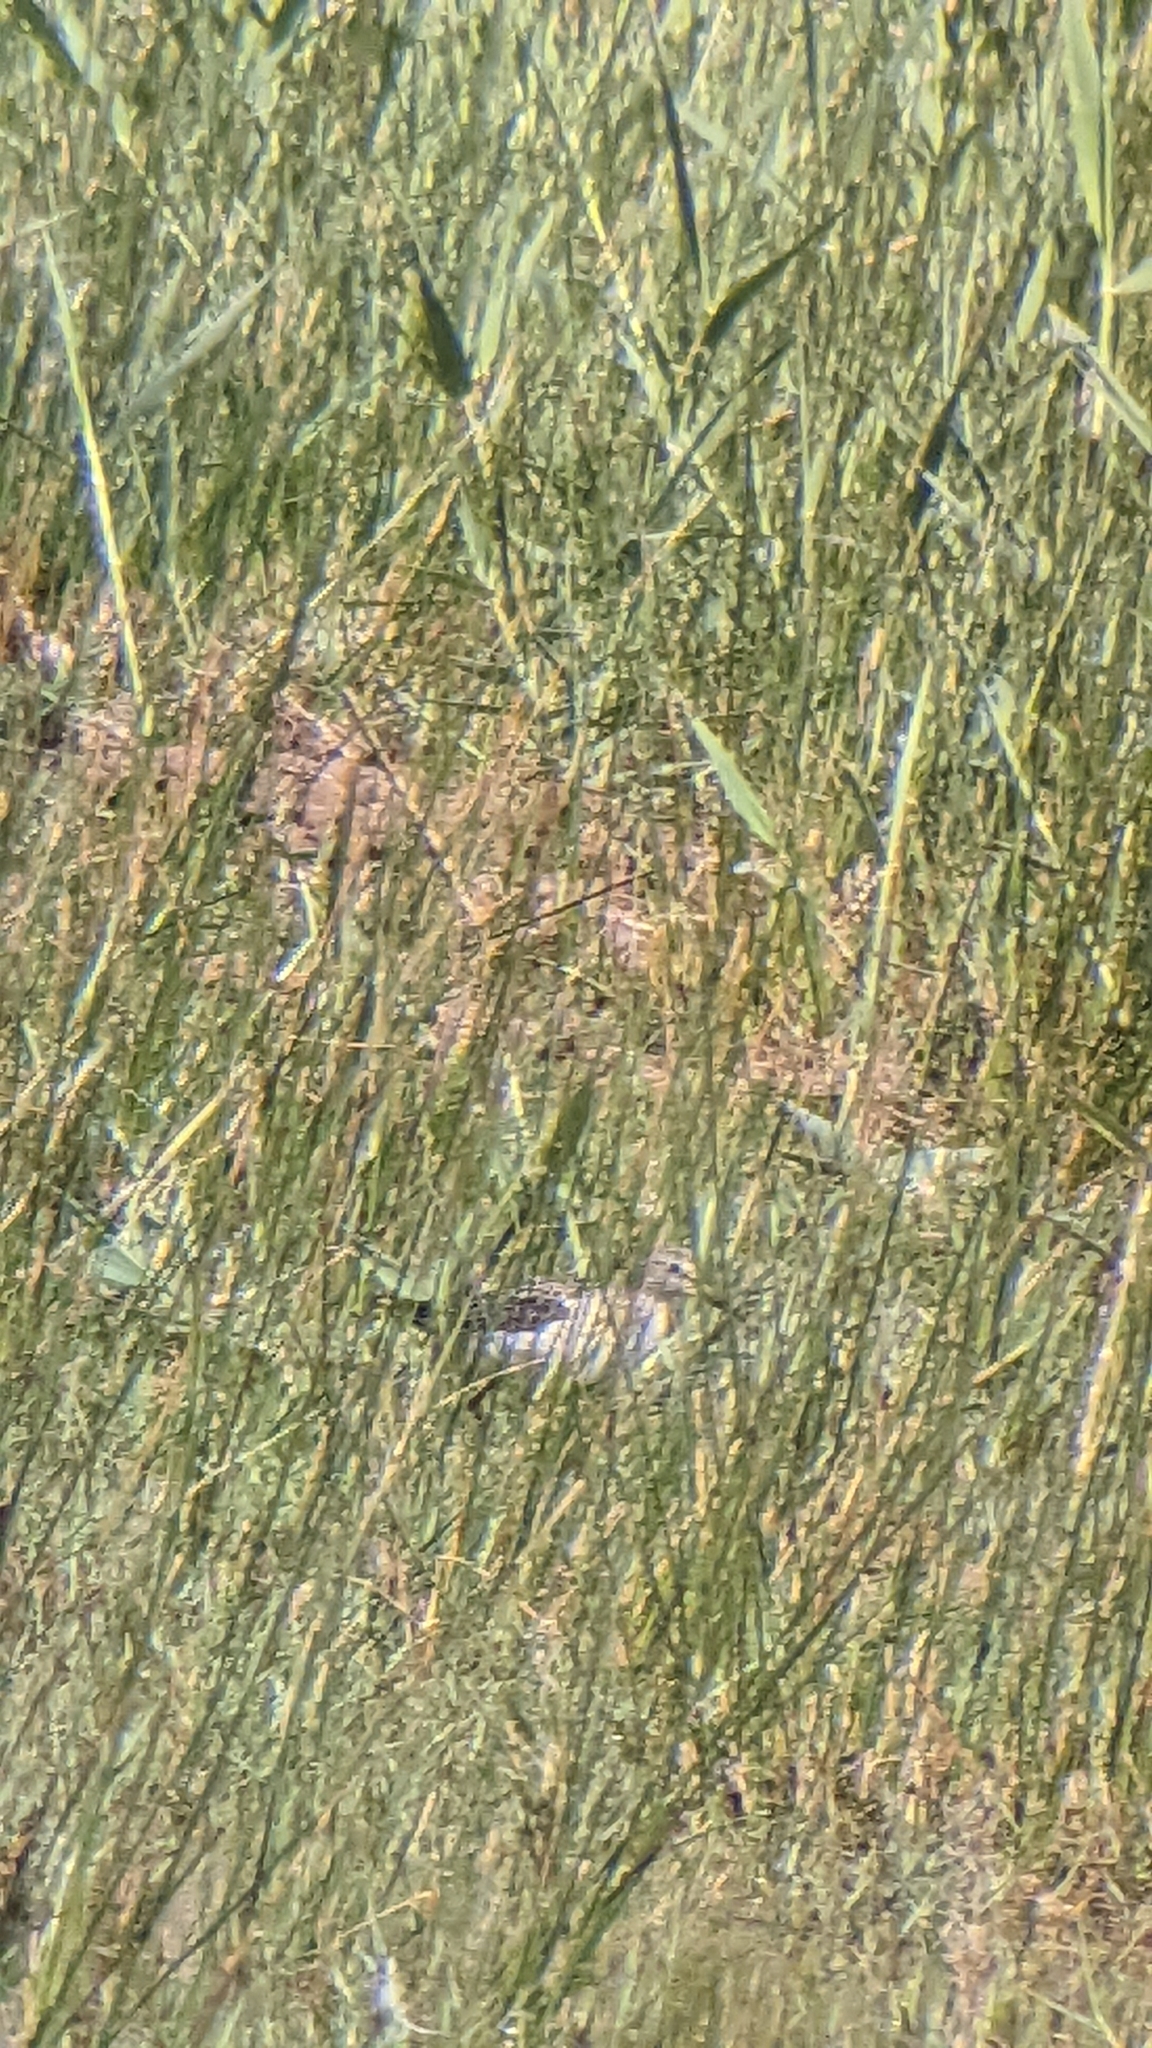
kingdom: Animalia
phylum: Chordata
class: Aves
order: Charadriiformes
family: Scolopacidae
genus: Tringa
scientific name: Tringa glareola
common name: Wood sandpiper
